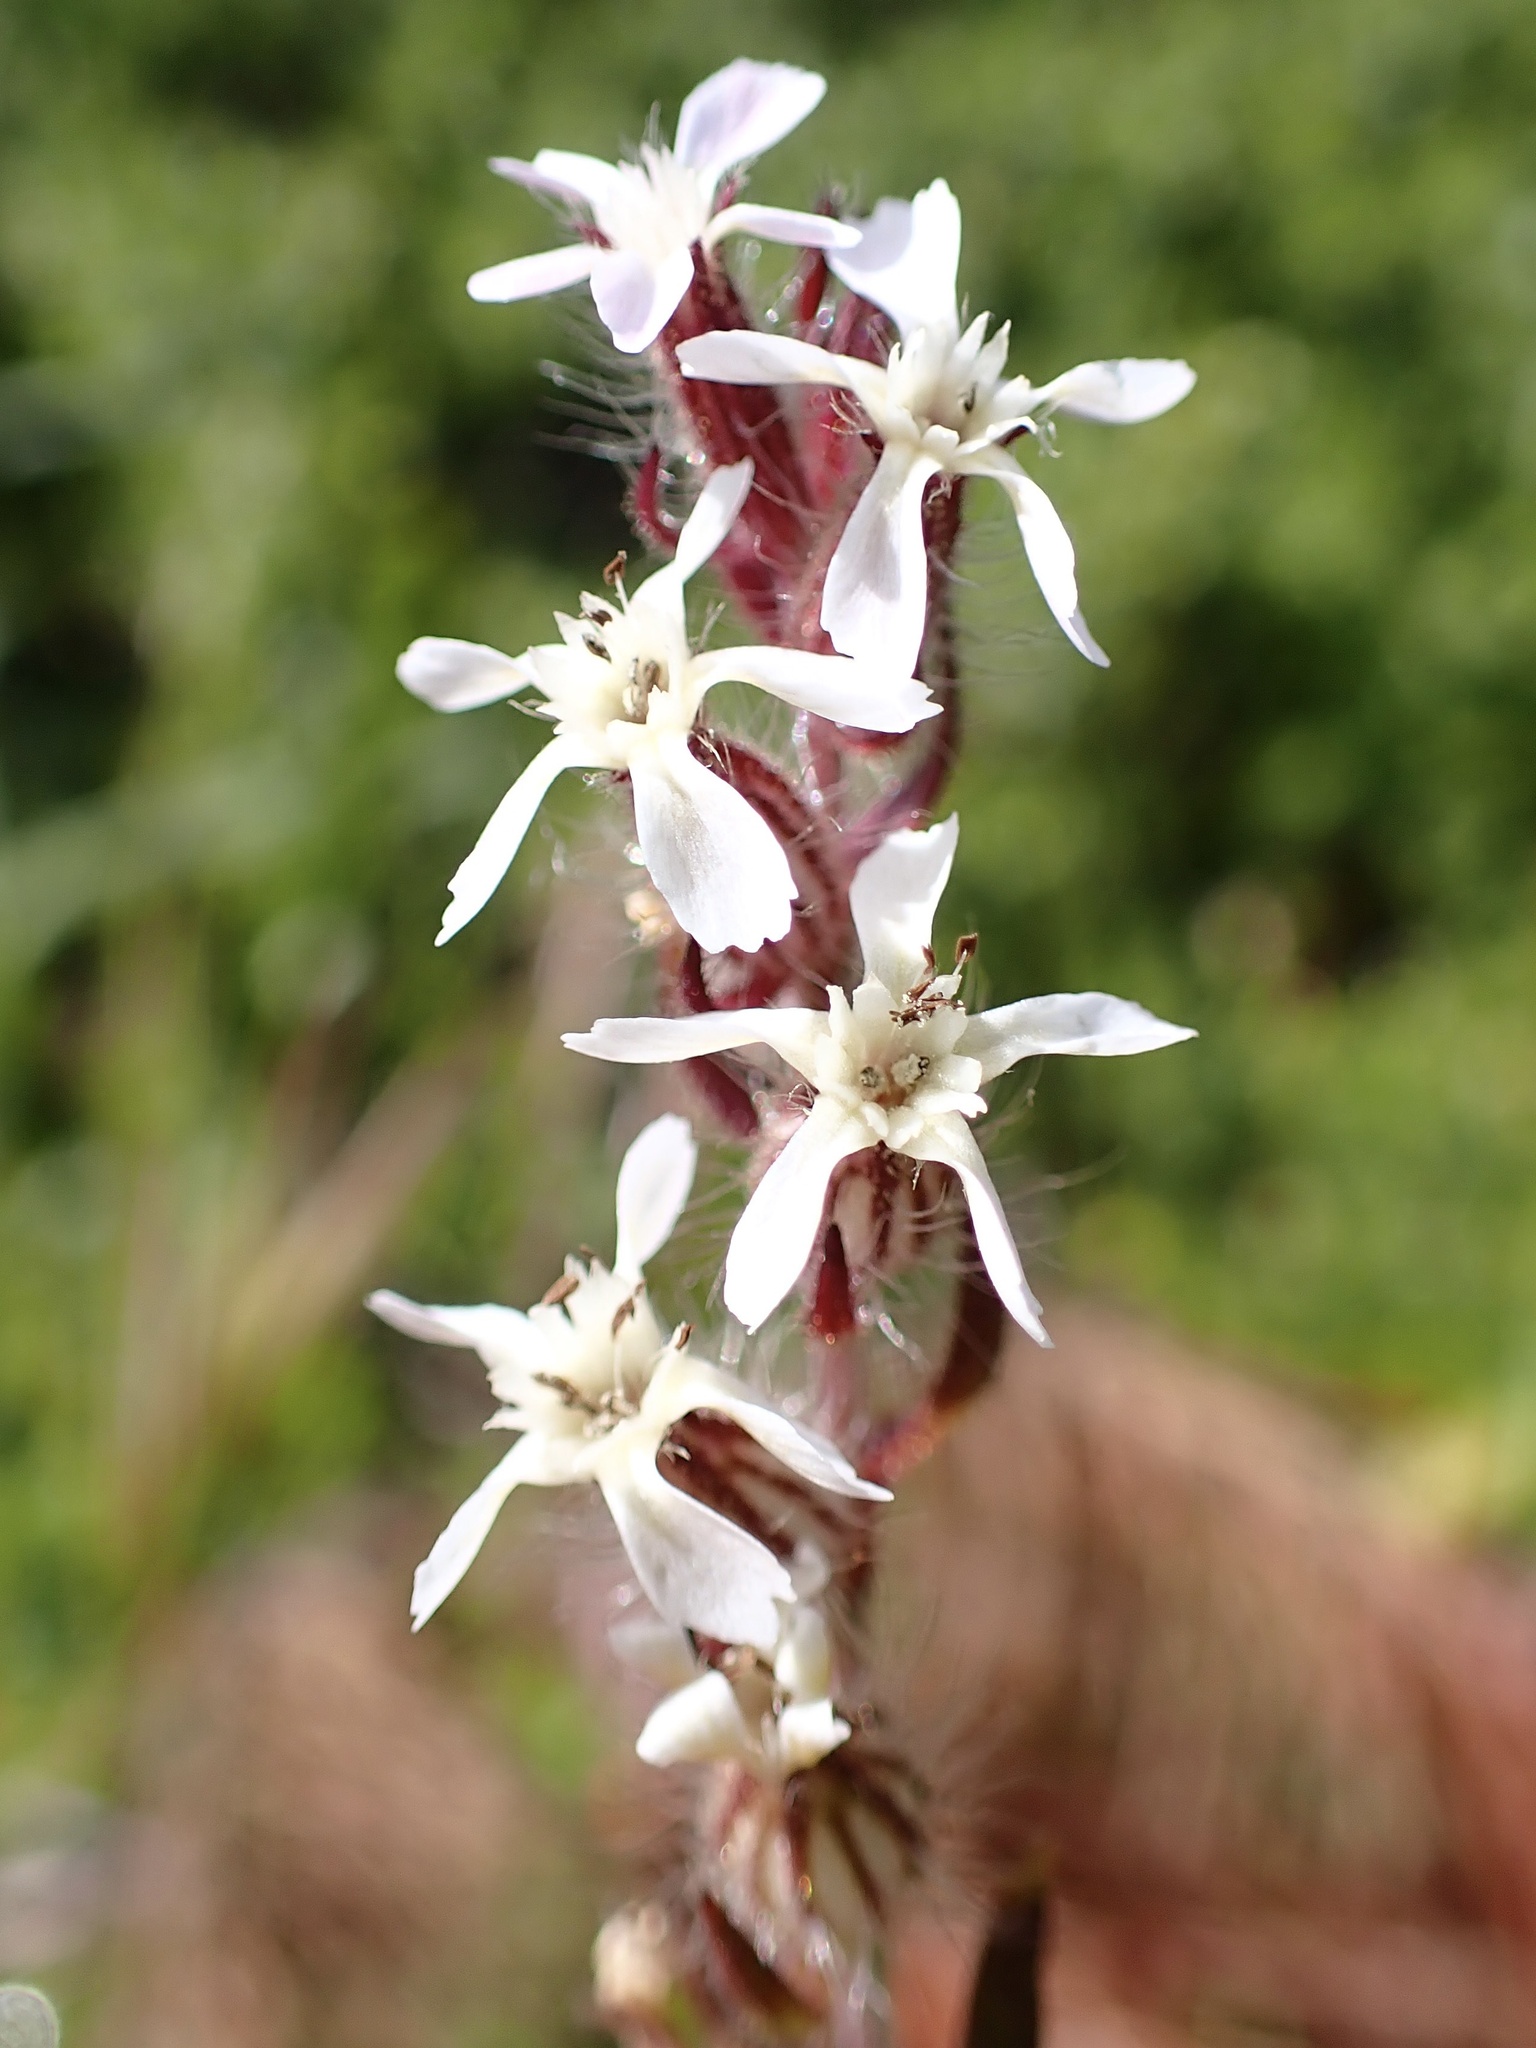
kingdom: Plantae
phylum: Tracheophyta
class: Magnoliopsida
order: Caryophyllales
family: Caryophyllaceae
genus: Silene
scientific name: Silene gallica
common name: Small-flowered catchfly
